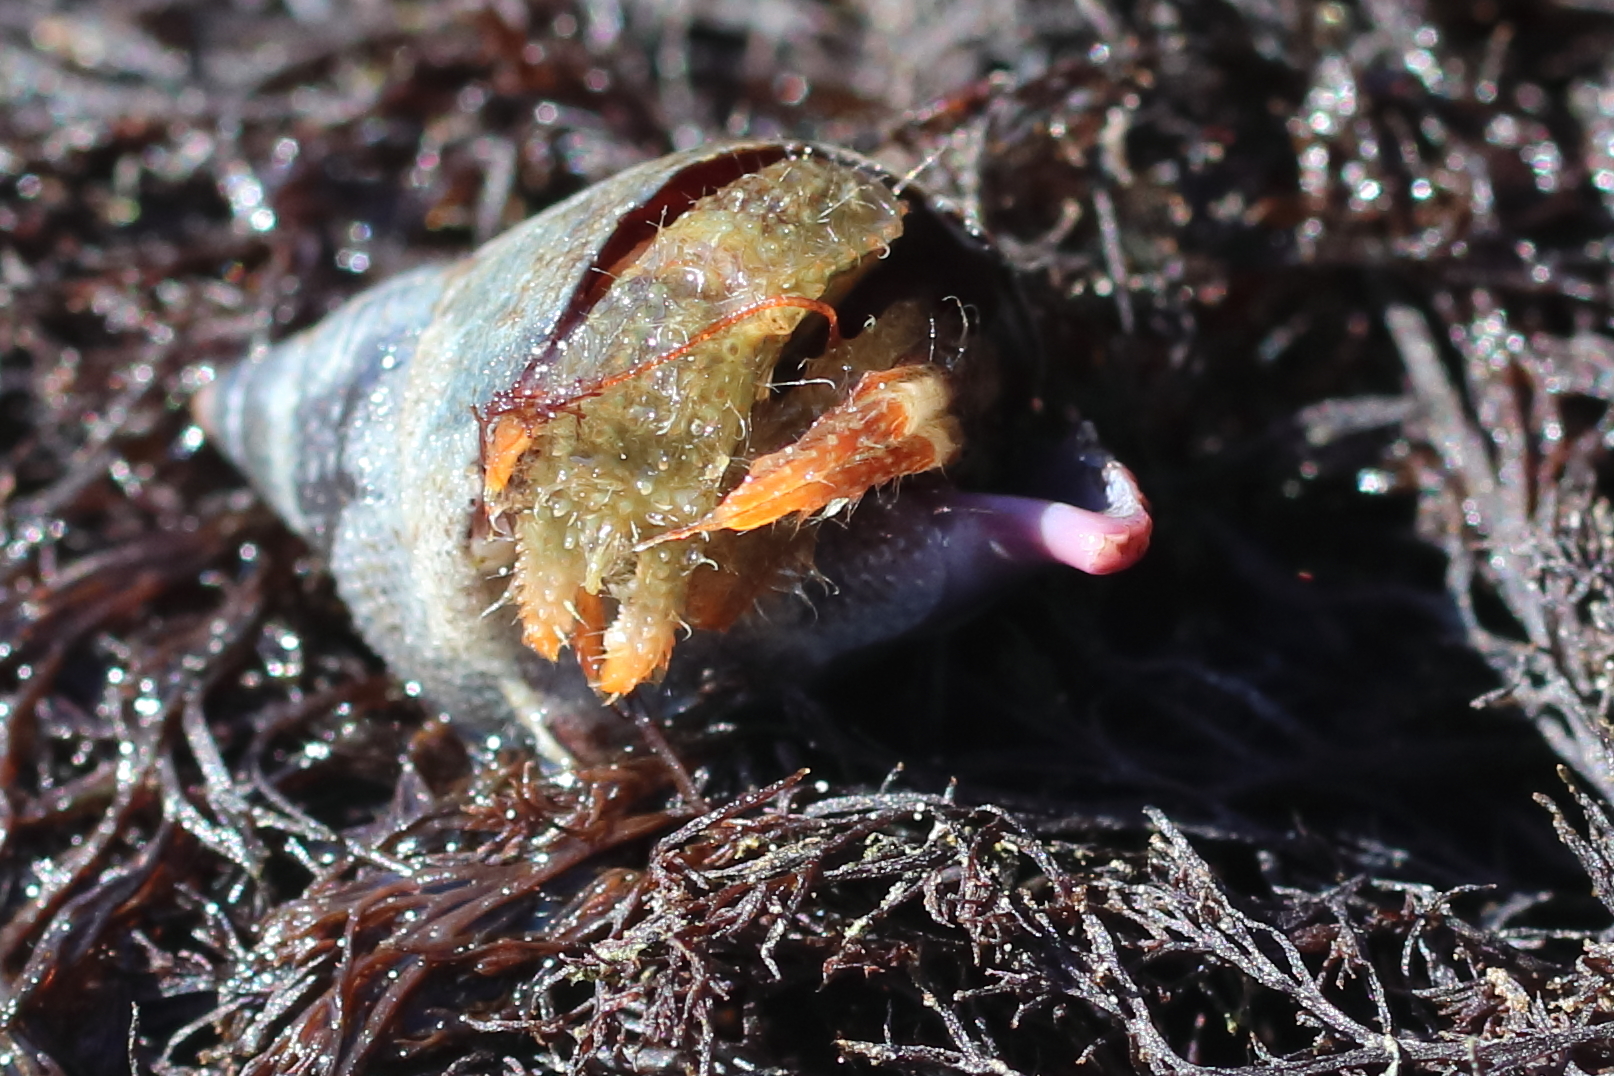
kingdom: Animalia
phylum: Arthropoda
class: Malacostraca
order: Decapoda
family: Paguridae
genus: Pagurus
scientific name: Pagurus caurinus
